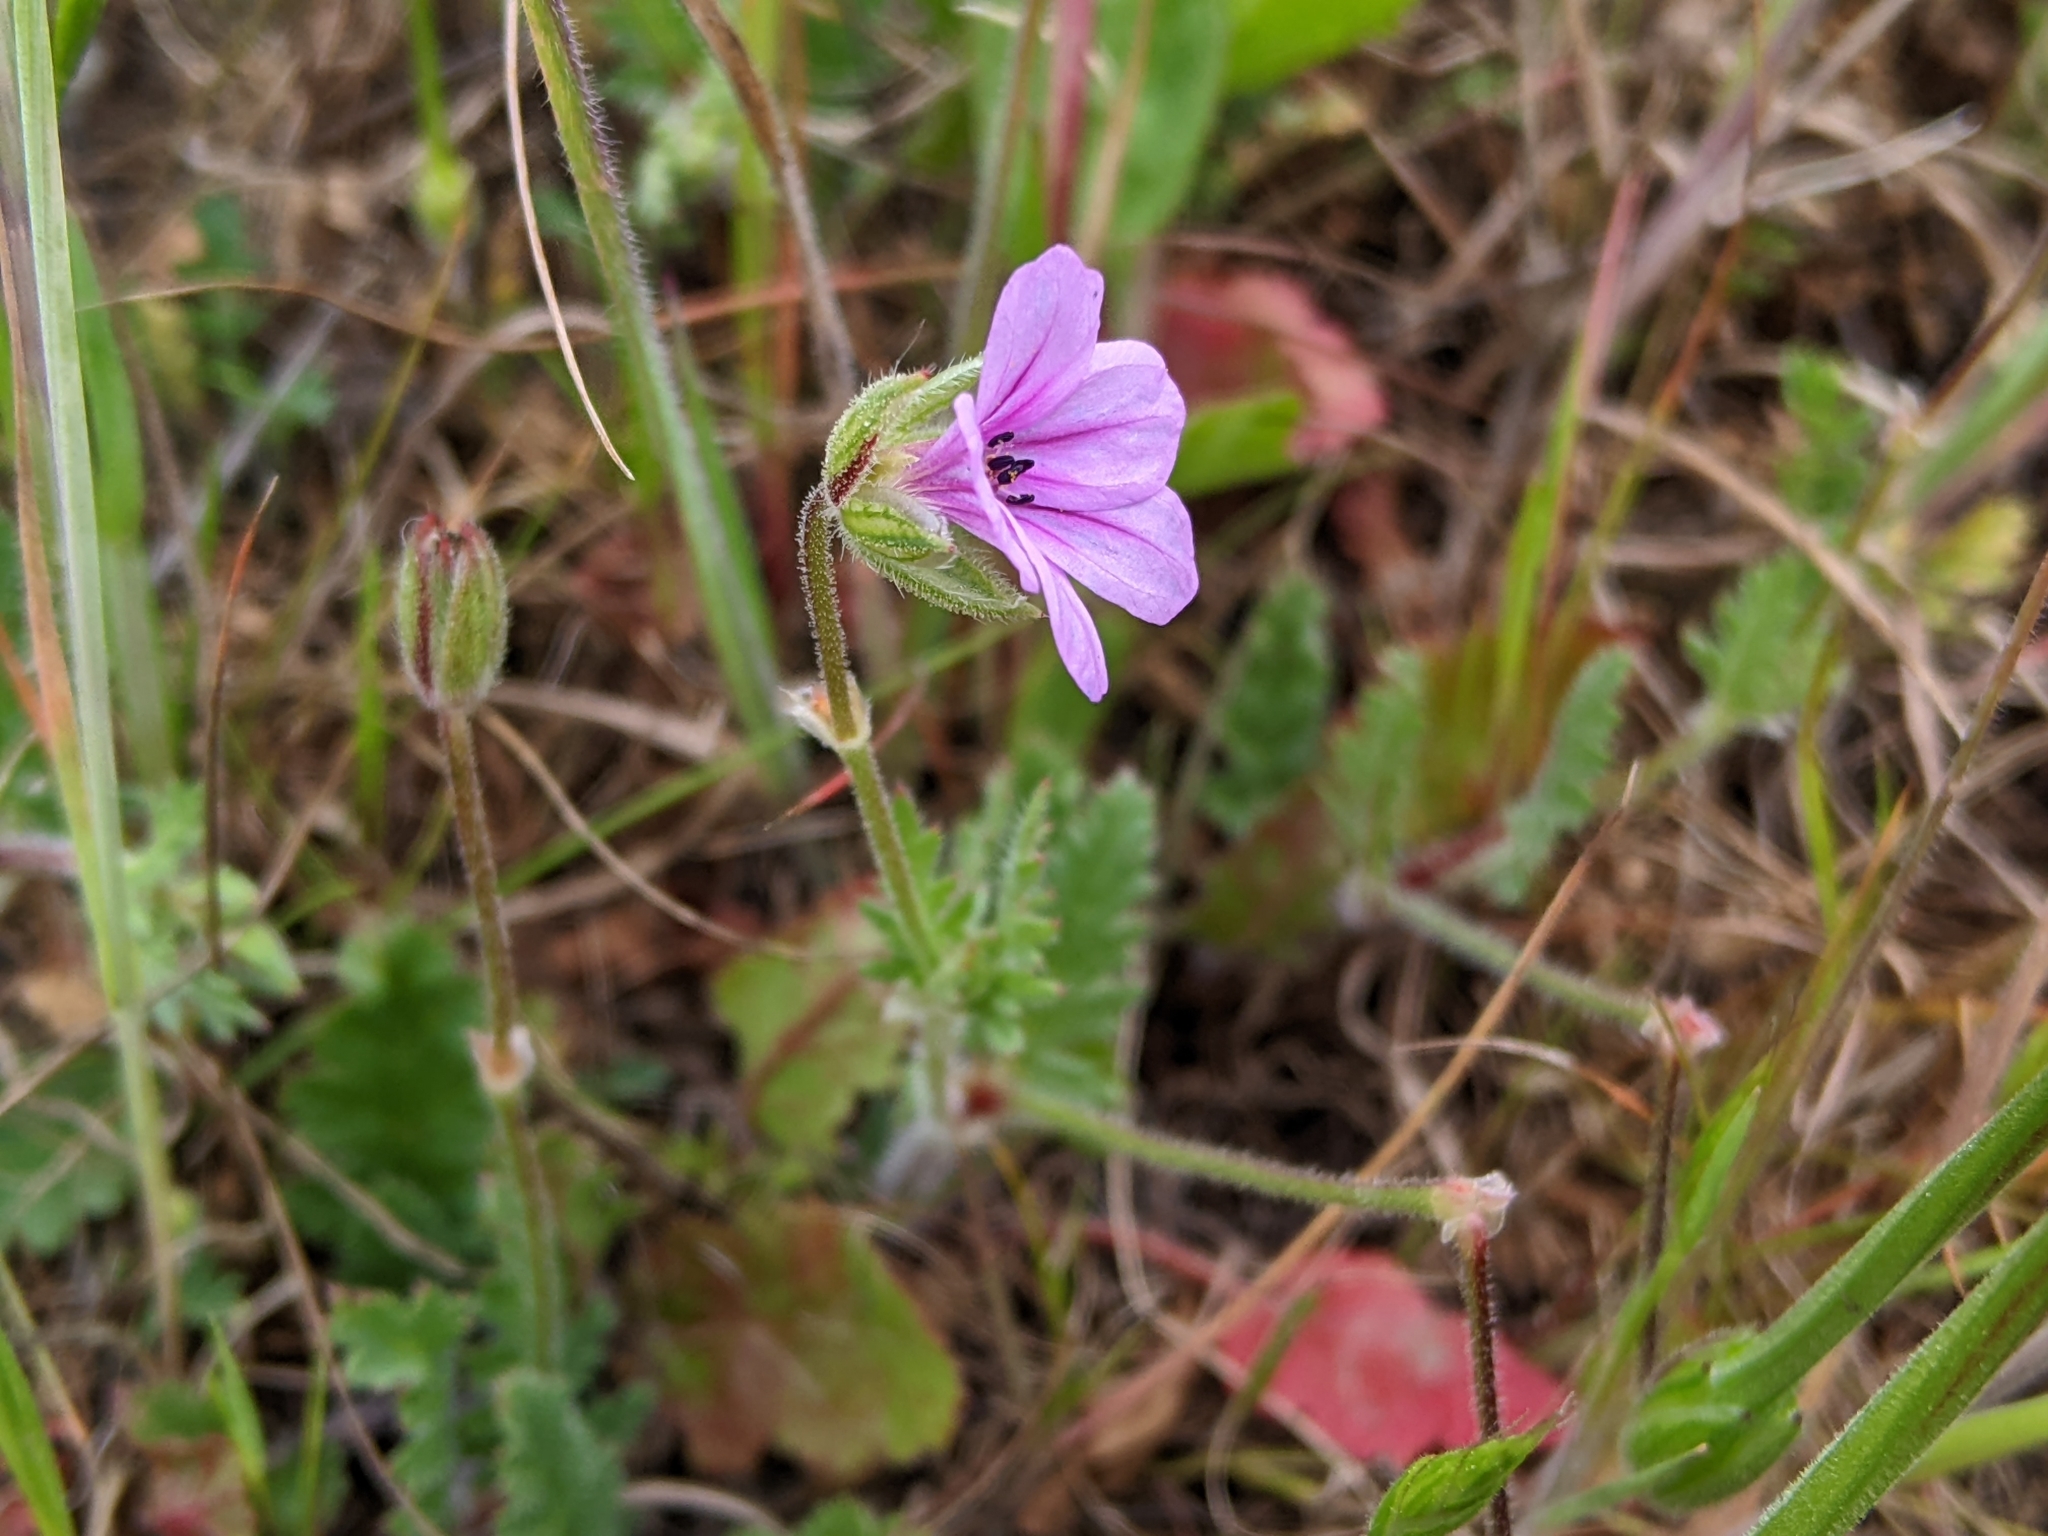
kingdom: Plantae
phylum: Tracheophyta
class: Magnoliopsida
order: Geraniales
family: Geraniaceae
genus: Erodium
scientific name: Erodium botrys
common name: Mediterranean stork's-bill
